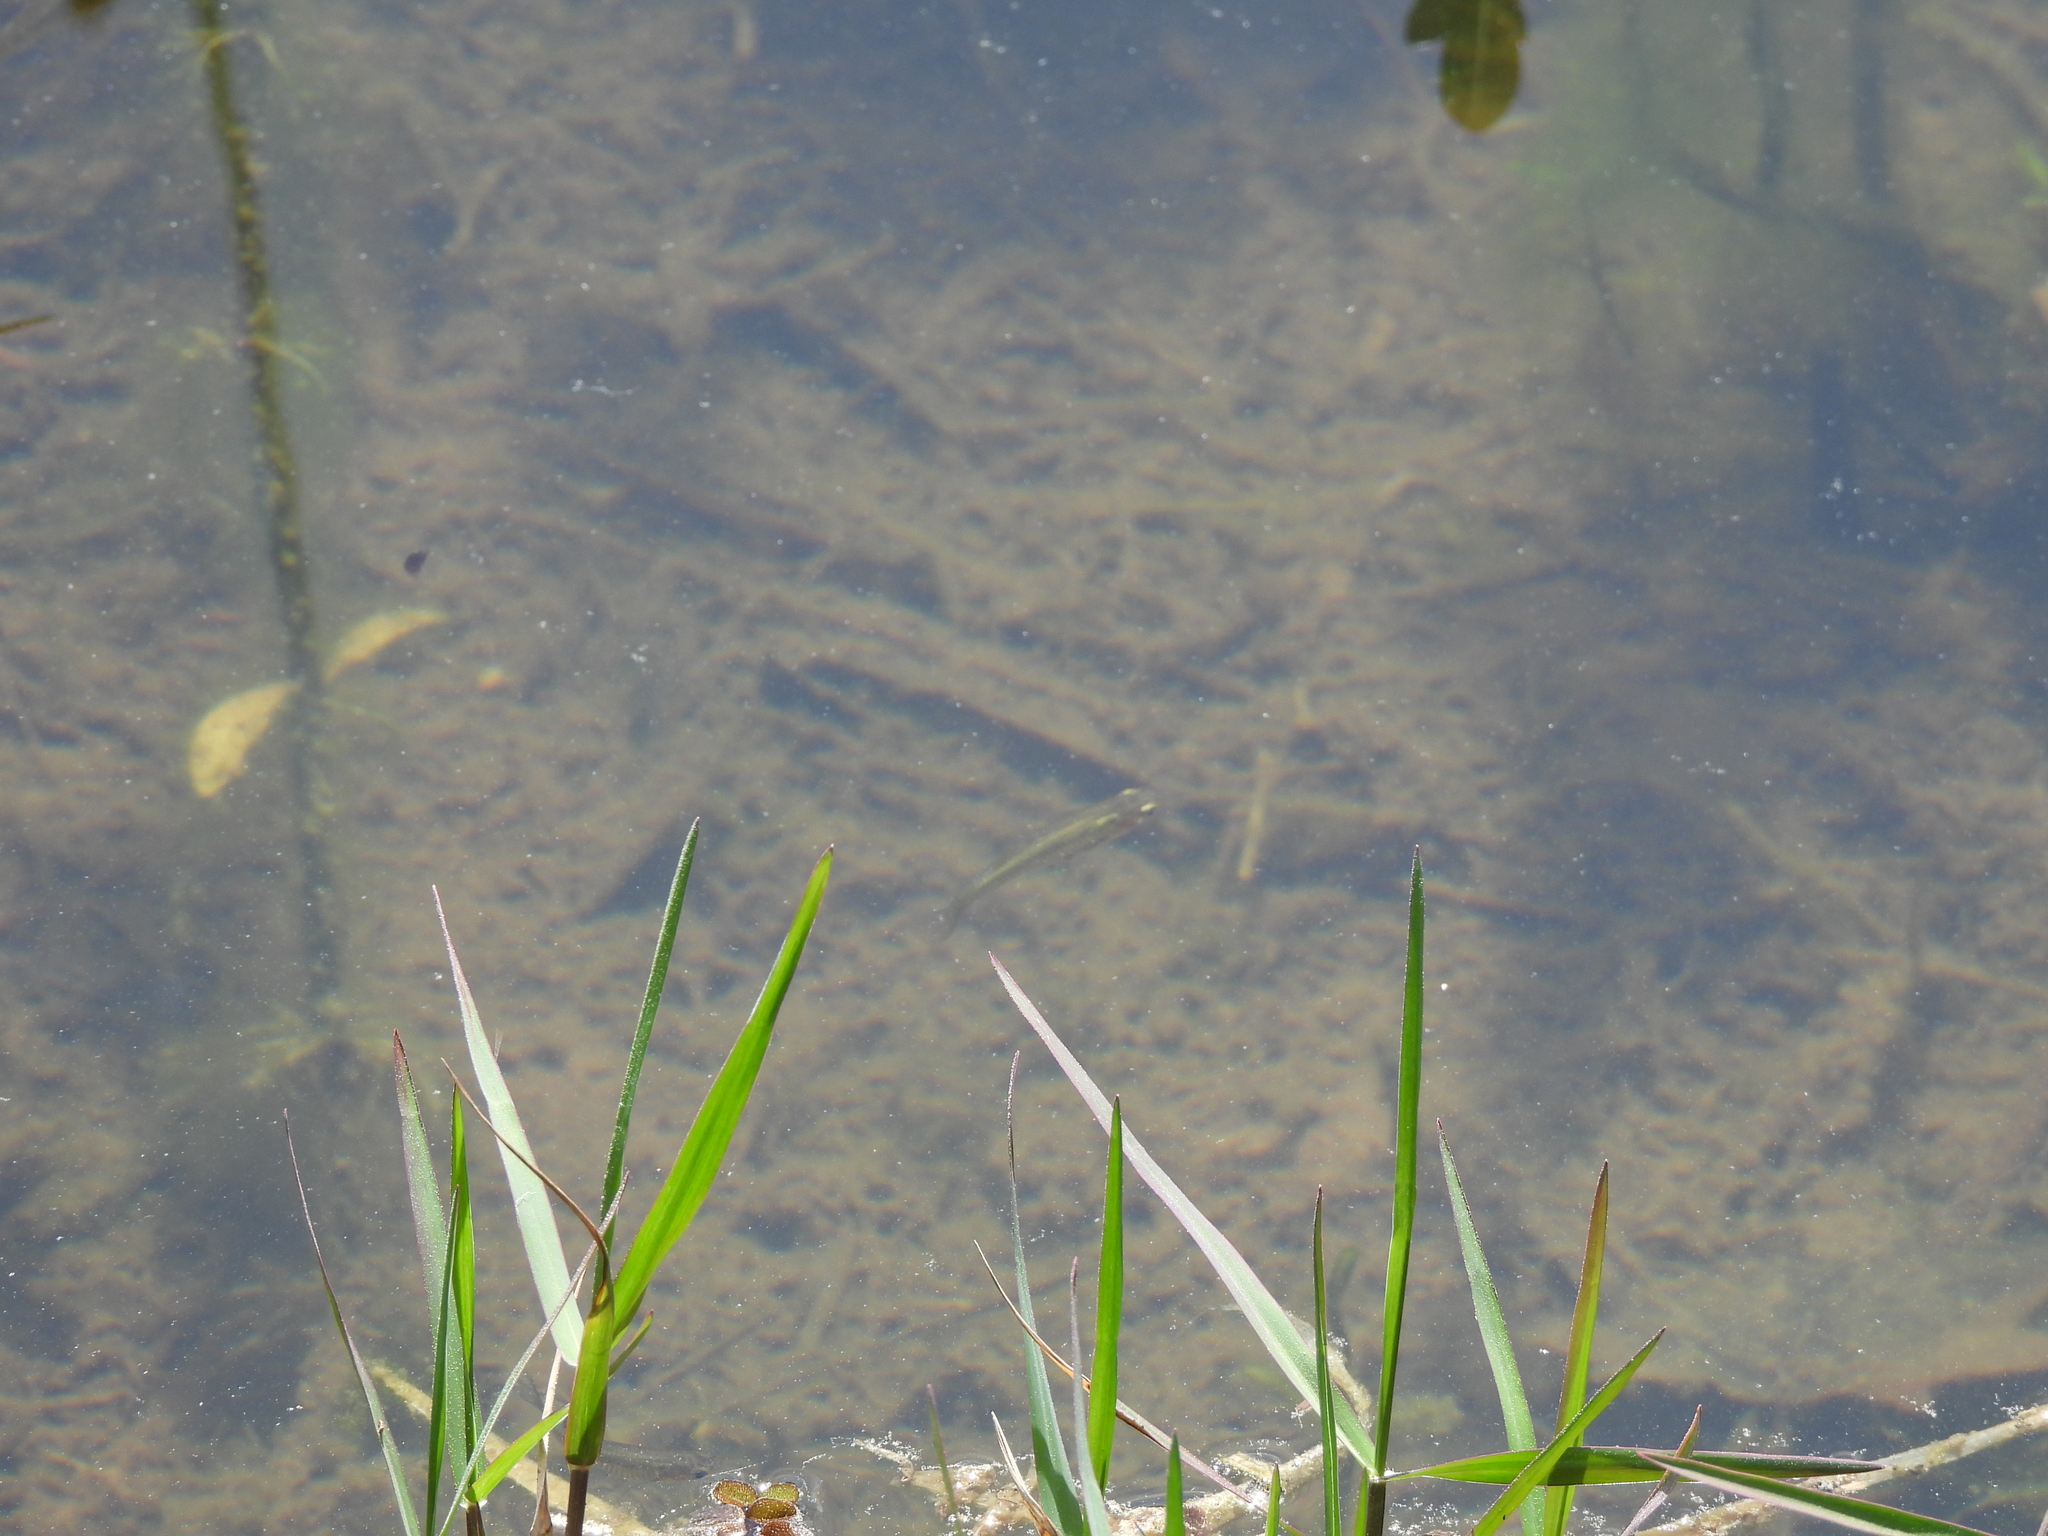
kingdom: Animalia
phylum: Chordata
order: Cyprinodontiformes
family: Poeciliidae
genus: Gambusia
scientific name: Gambusia affinis
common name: Mosquitofish
